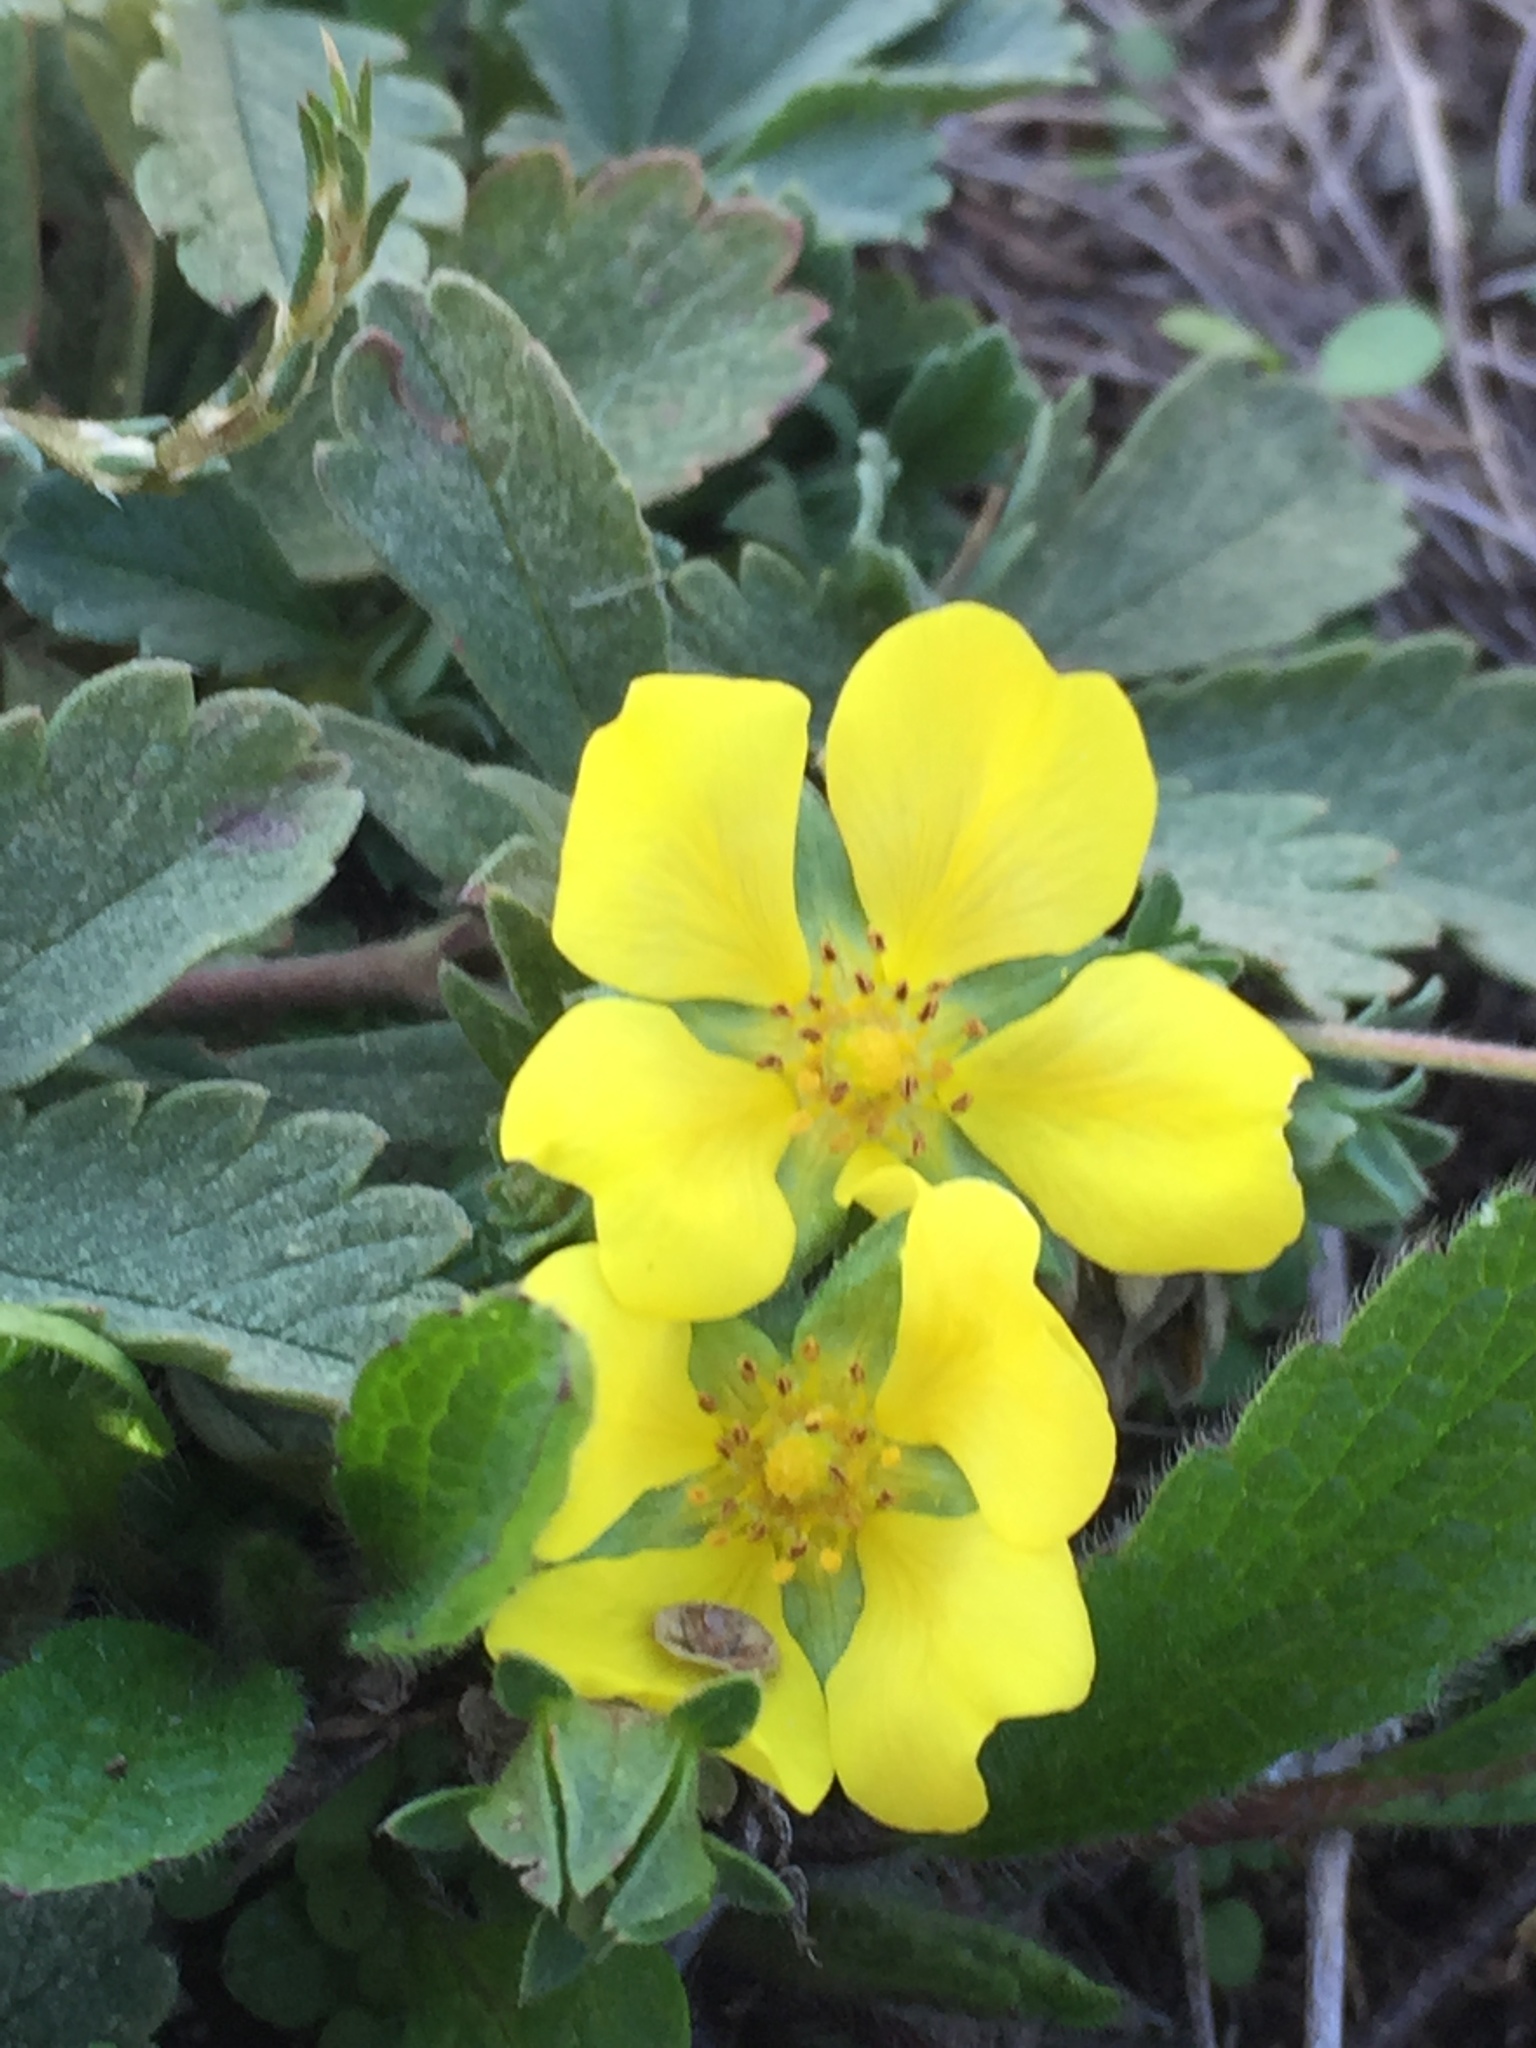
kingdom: Plantae
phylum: Tracheophyta
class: Magnoliopsida
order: Rosales
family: Rosaceae
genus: Potentilla
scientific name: Potentilla incana
